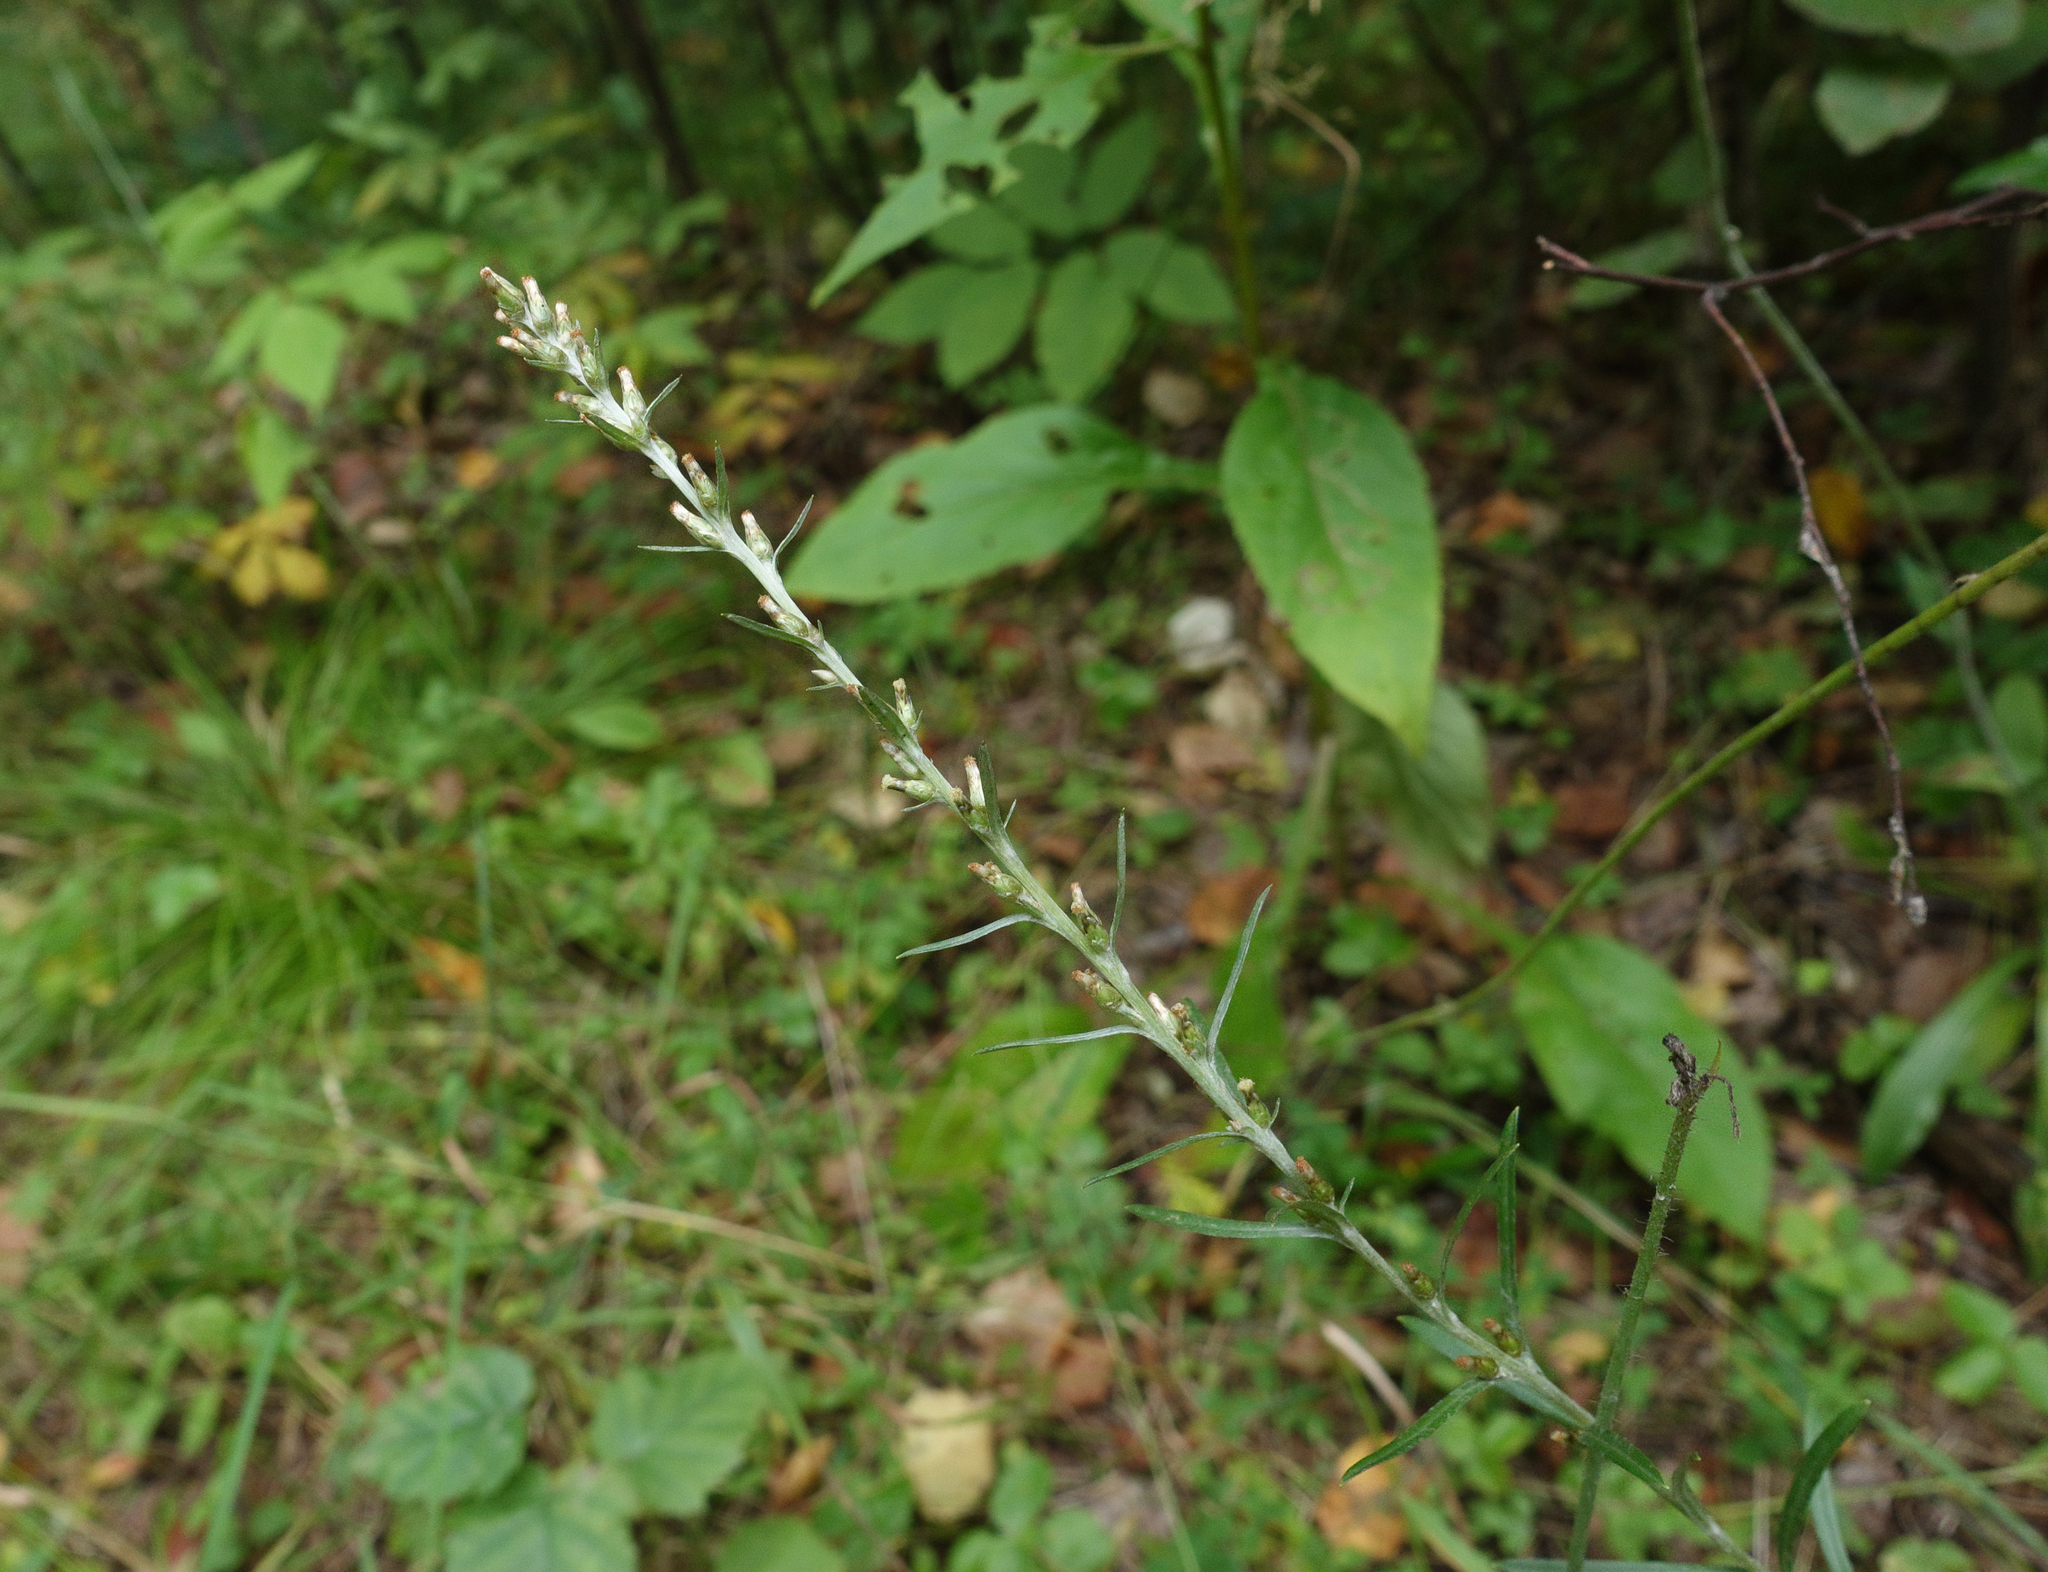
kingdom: Plantae
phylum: Tracheophyta
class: Magnoliopsida
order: Asterales
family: Asteraceae
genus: Omalotheca
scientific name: Omalotheca sylvatica
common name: Heath cudweed
